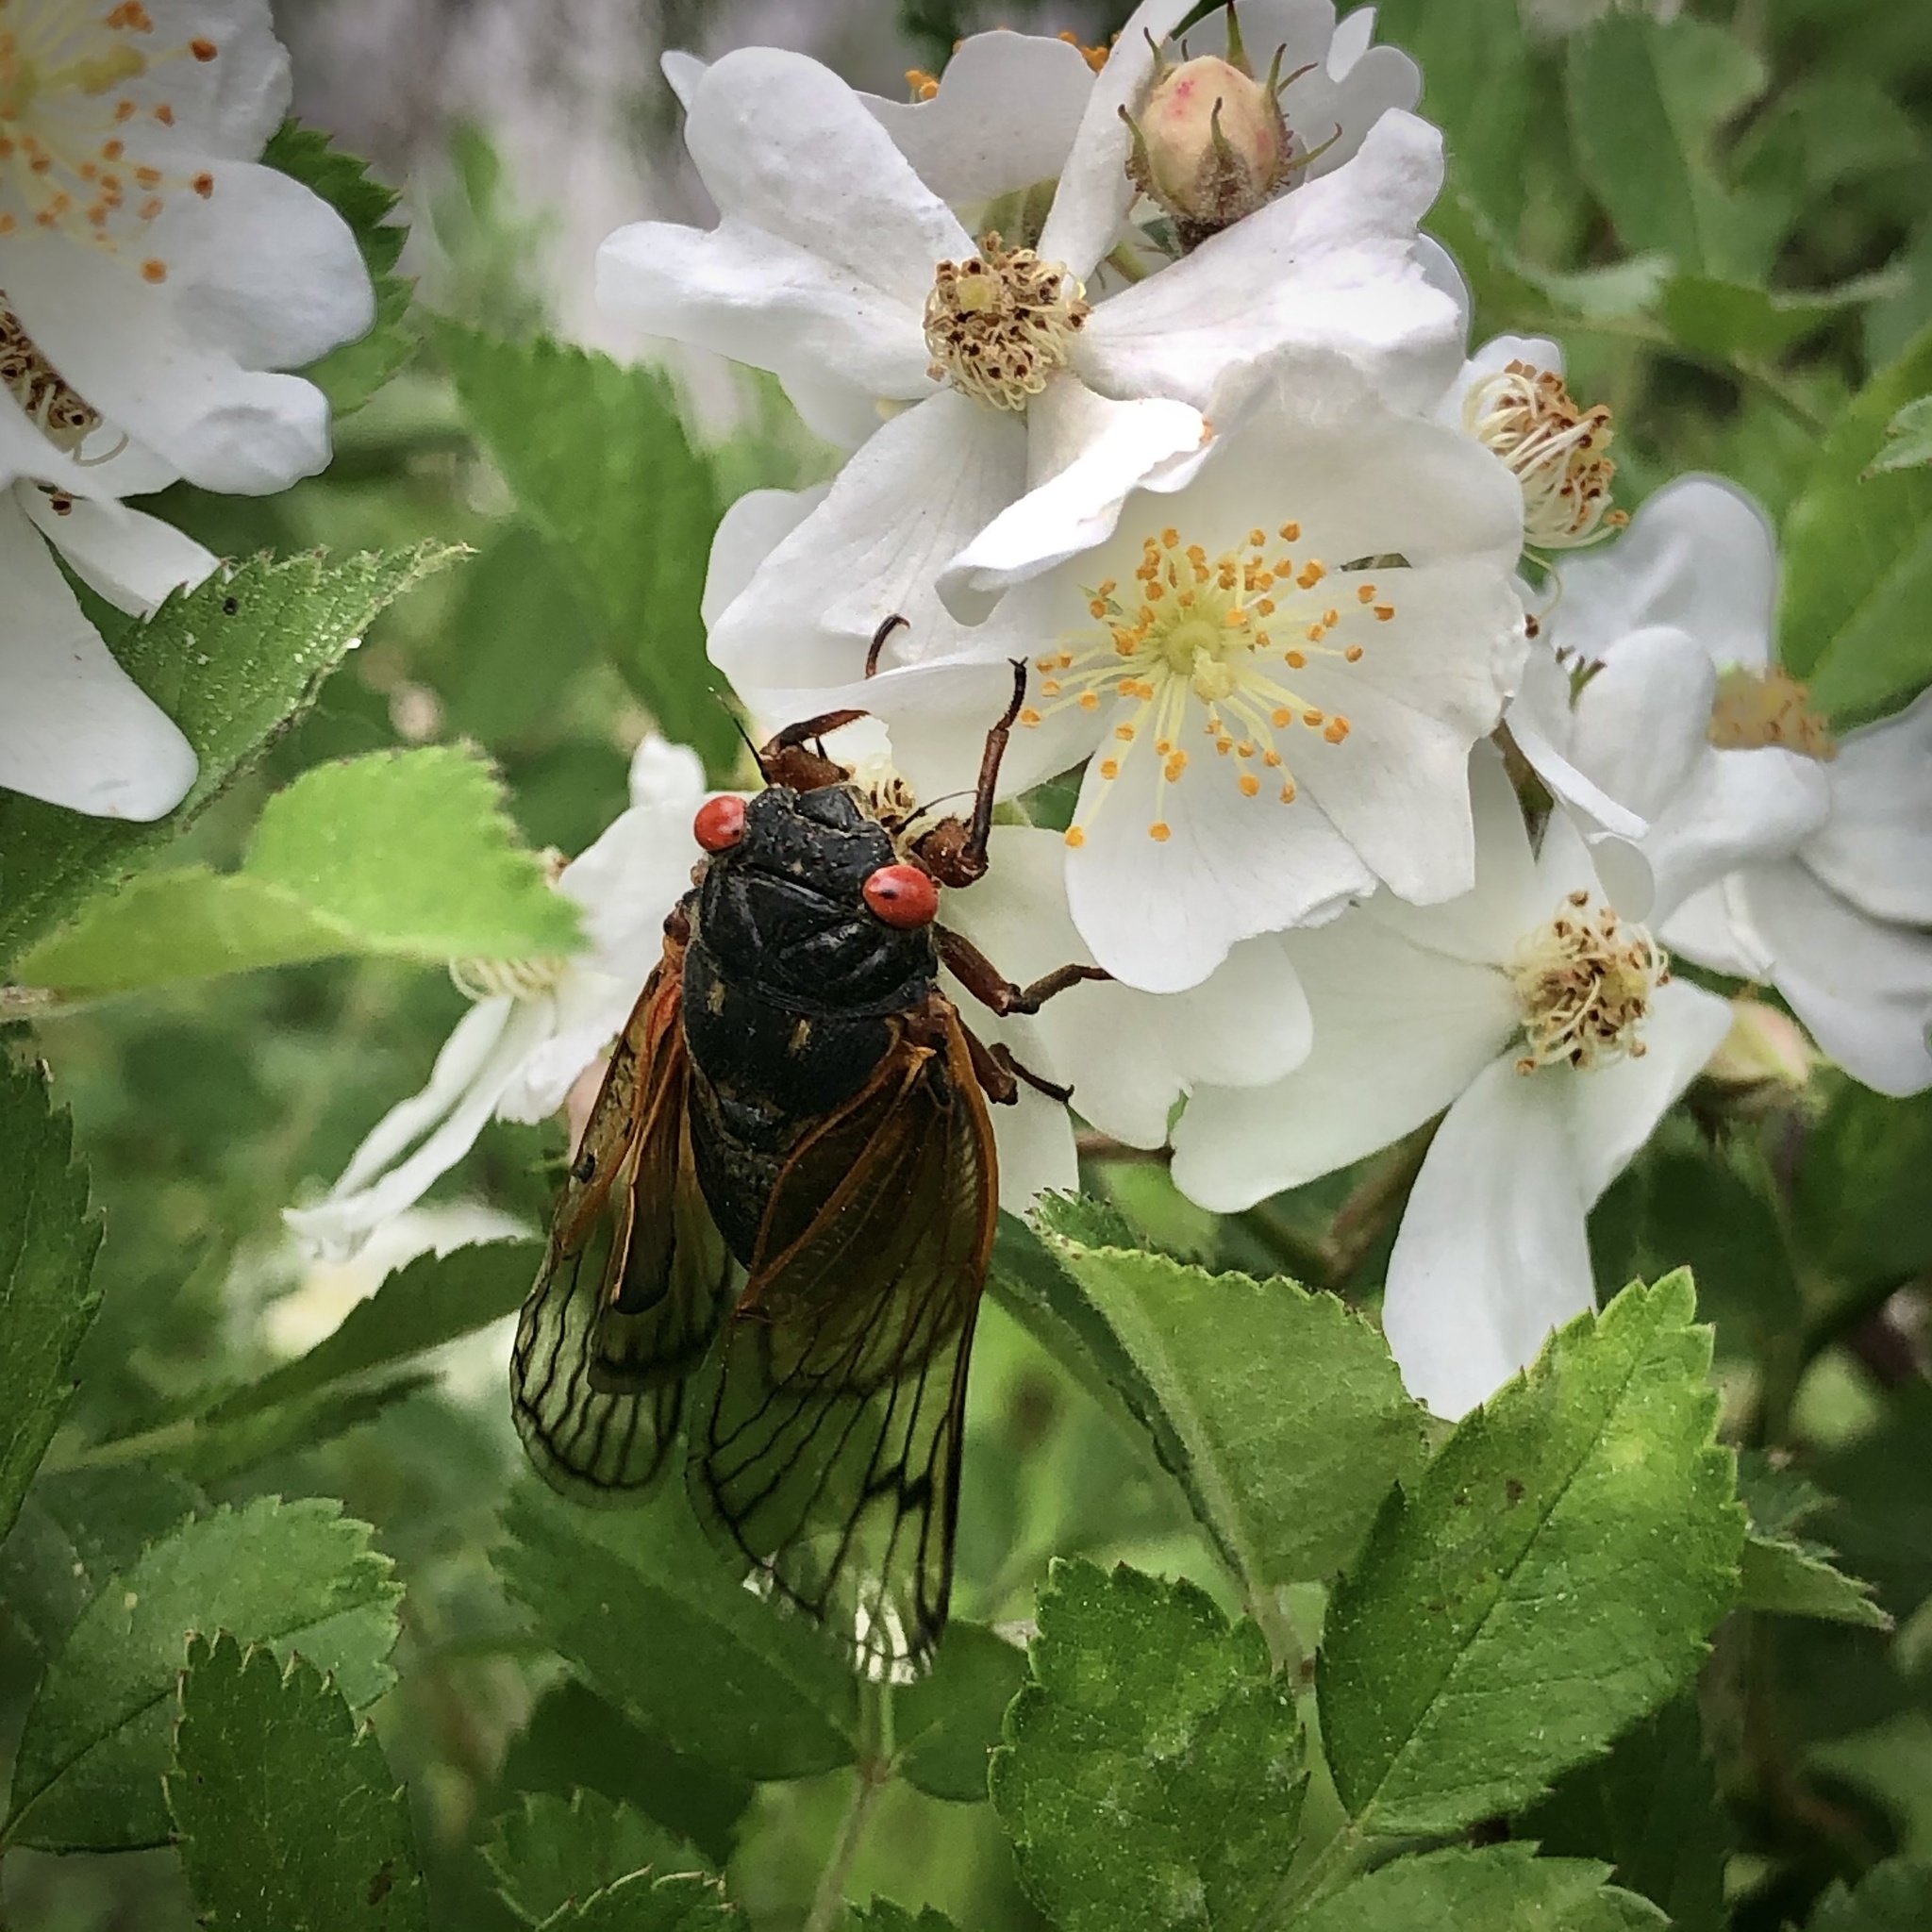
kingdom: Animalia
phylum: Arthropoda
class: Insecta
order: Hemiptera
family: Cicadidae
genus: Magicicada
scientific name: Magicicada
